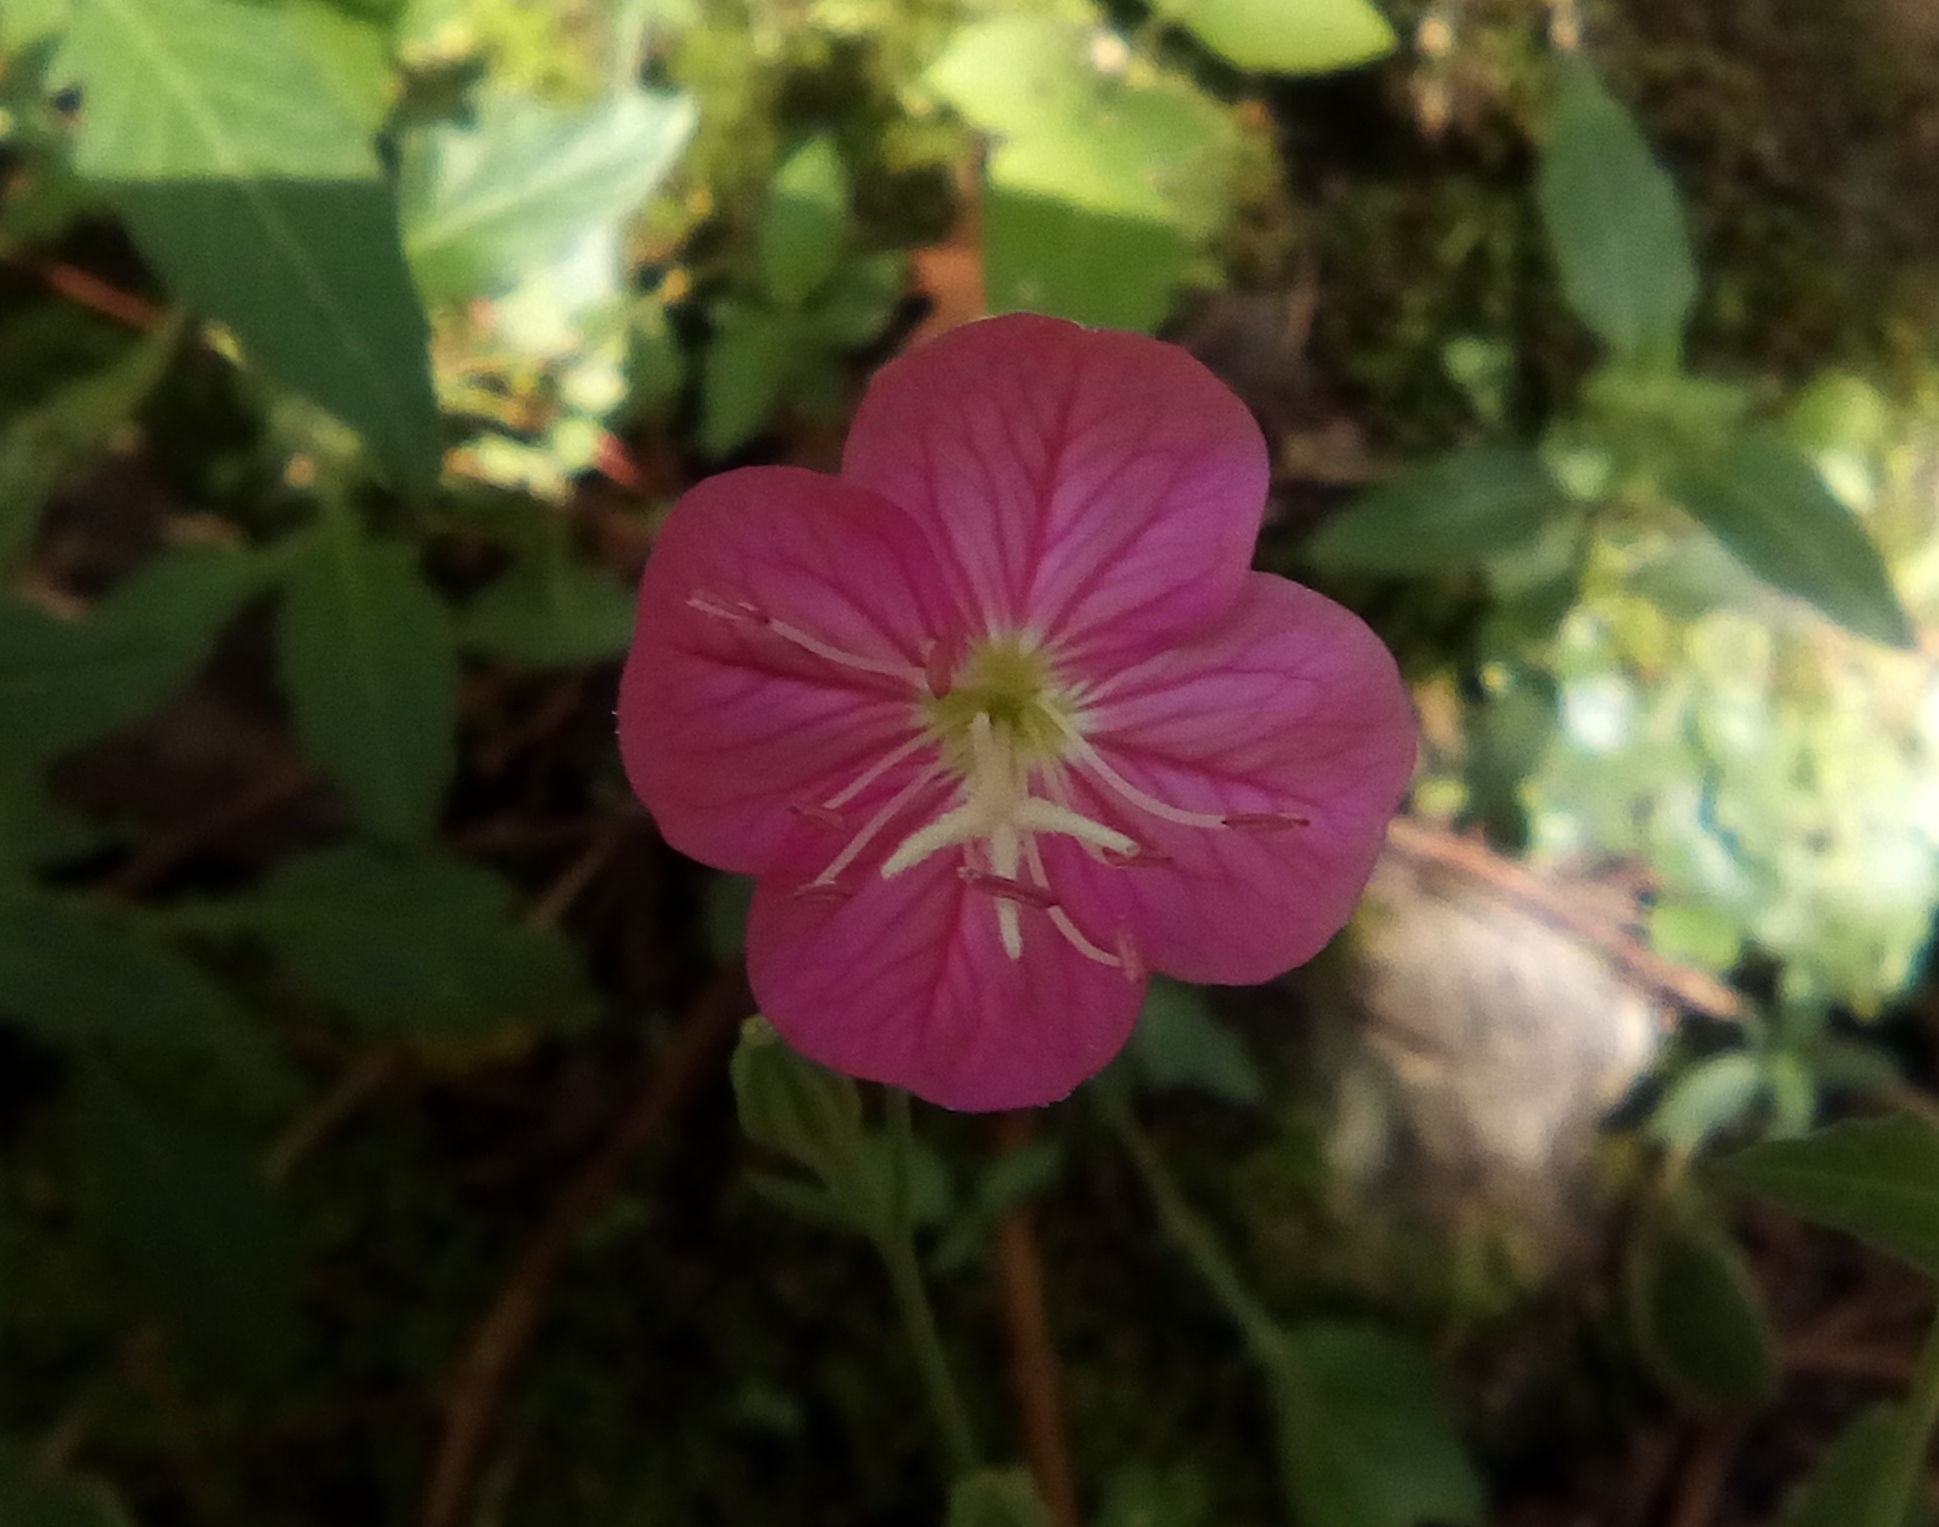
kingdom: Plantae
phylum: Tracheophyta
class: Magnoliopsida
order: Myrtales
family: Onagraceae
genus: Oenothera
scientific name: Oenothera rosea
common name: Rosy evening-primrose
